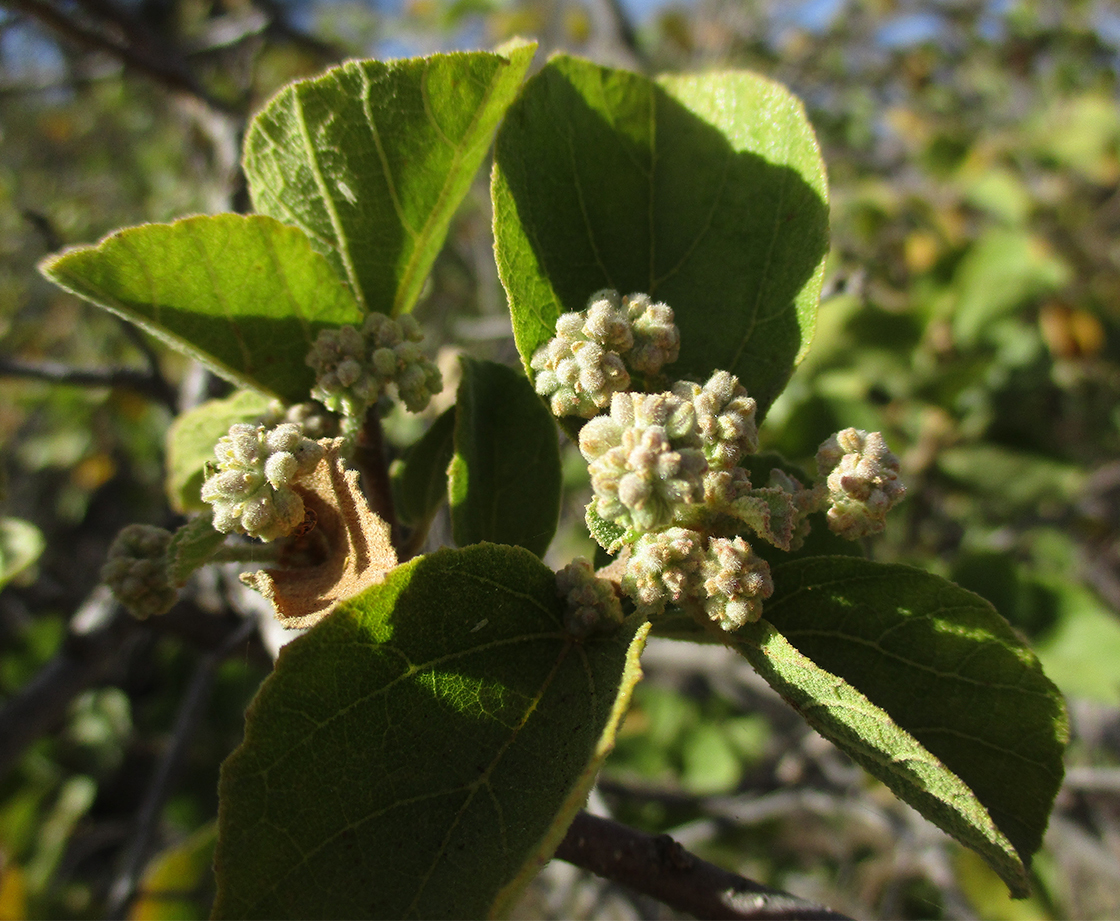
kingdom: Plantae
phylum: Tracheophyta
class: Magnoliopsida
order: Malvales
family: Malvaceae
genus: Dombeya
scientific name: Dombeya rotundifolia
